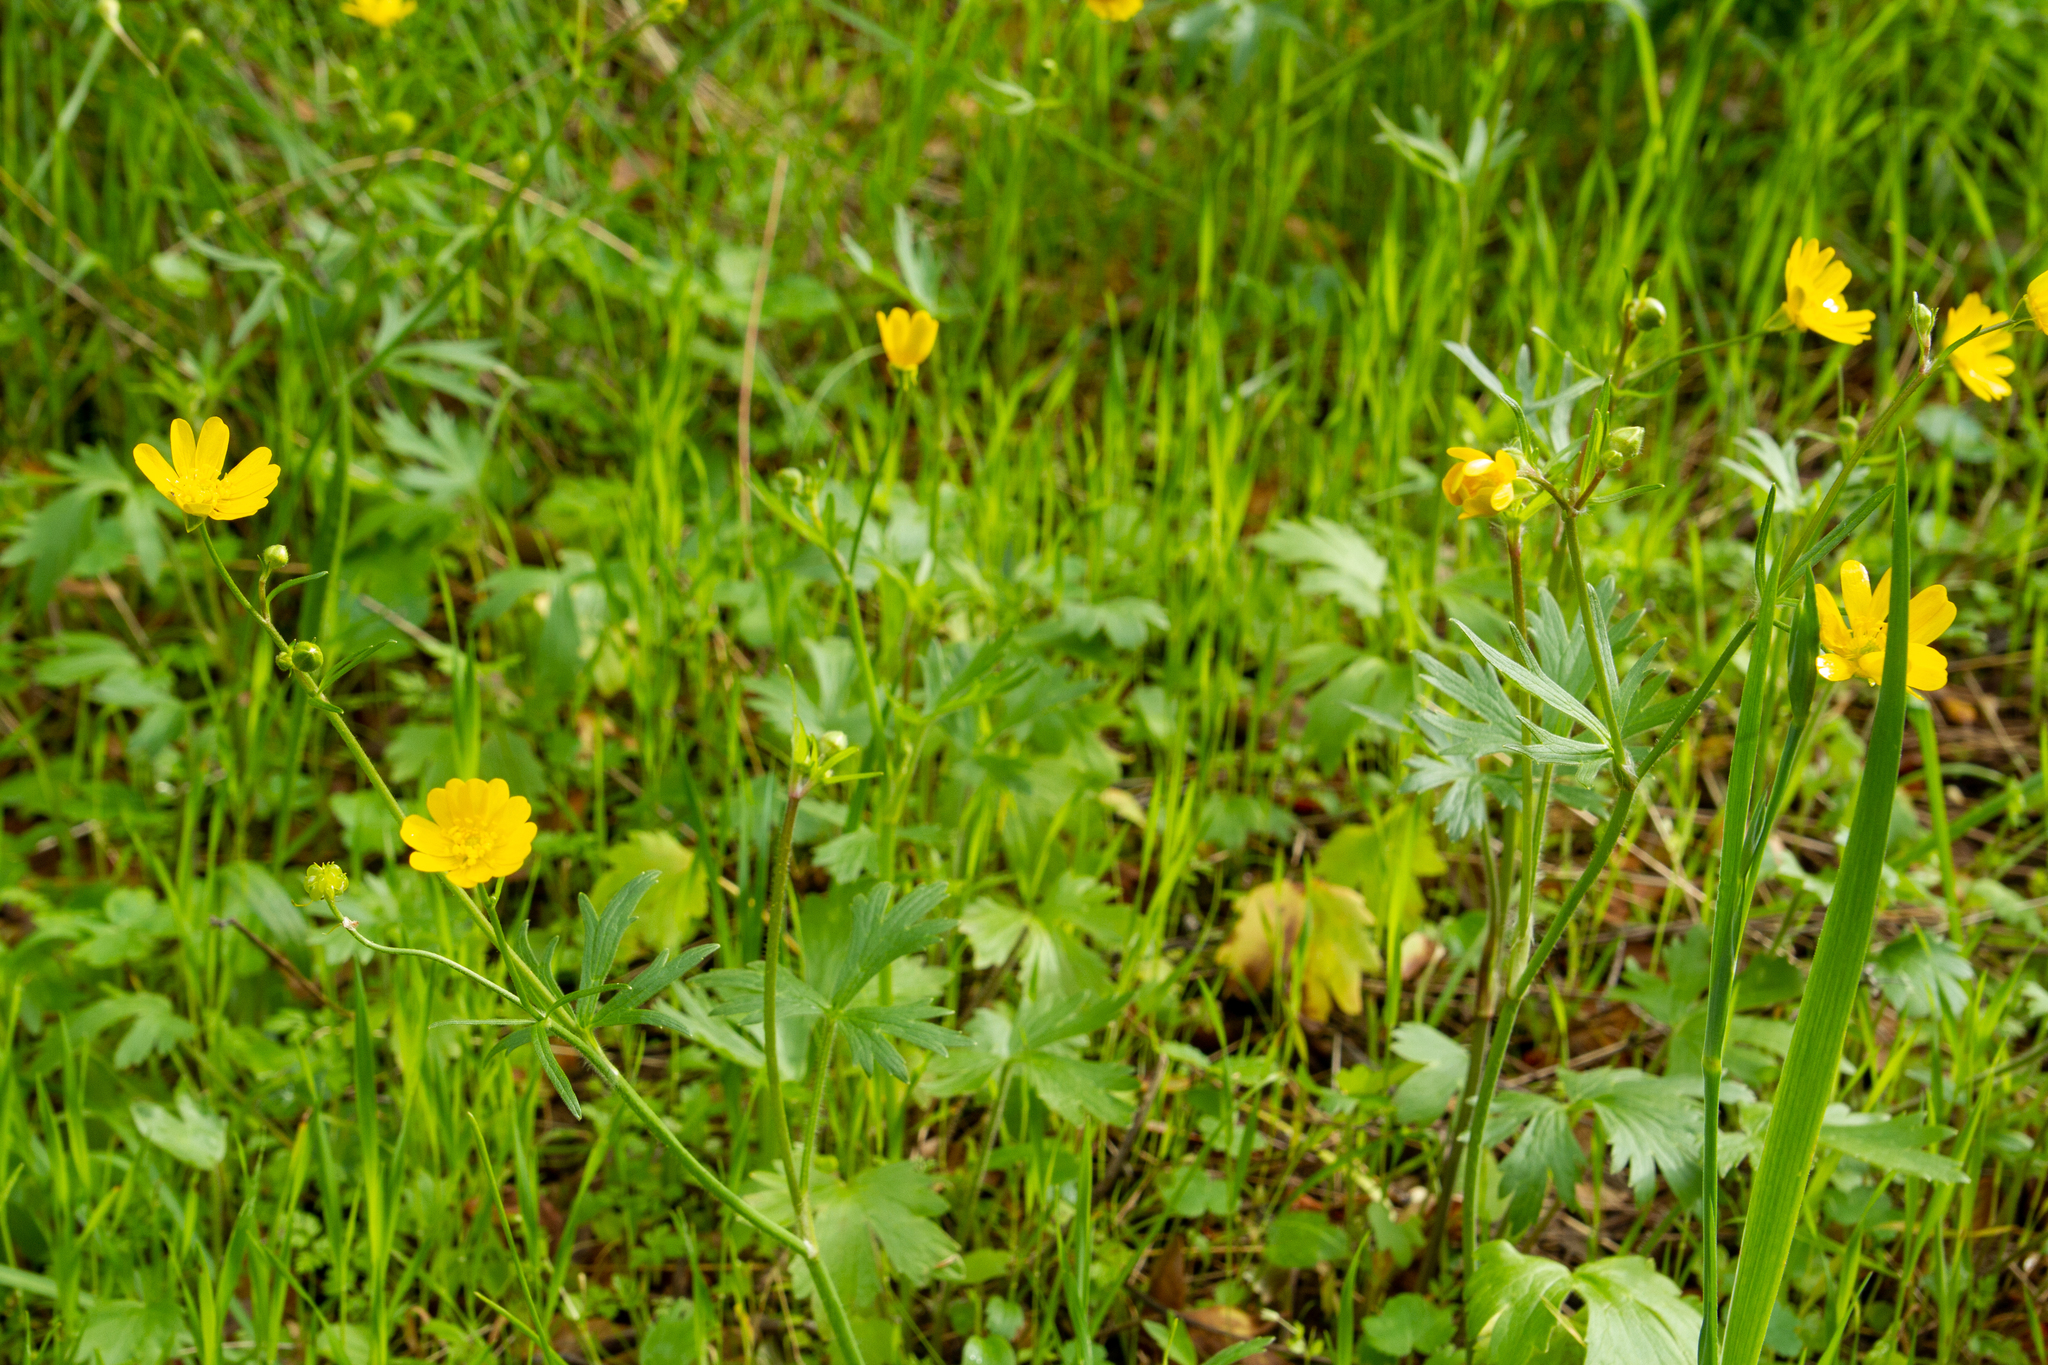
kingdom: Plantae
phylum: Tracheophyta
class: Magnoliopsida
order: Ranunculales
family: Ranunculaceae
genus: Ranunculus
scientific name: Ranunculus californicus
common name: California buttercup
